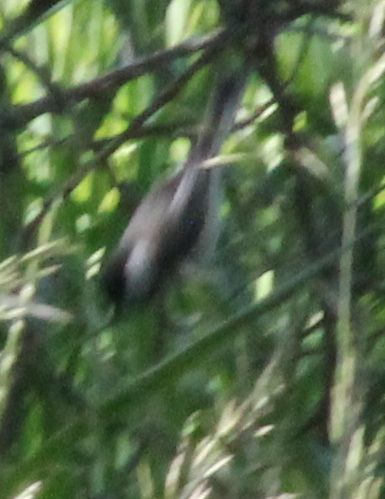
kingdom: Animalia
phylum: Chordata
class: Aves
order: Passeriformes
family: Paridae
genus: Poecile
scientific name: Poecile atricapillus
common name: Black-capped chickadee
